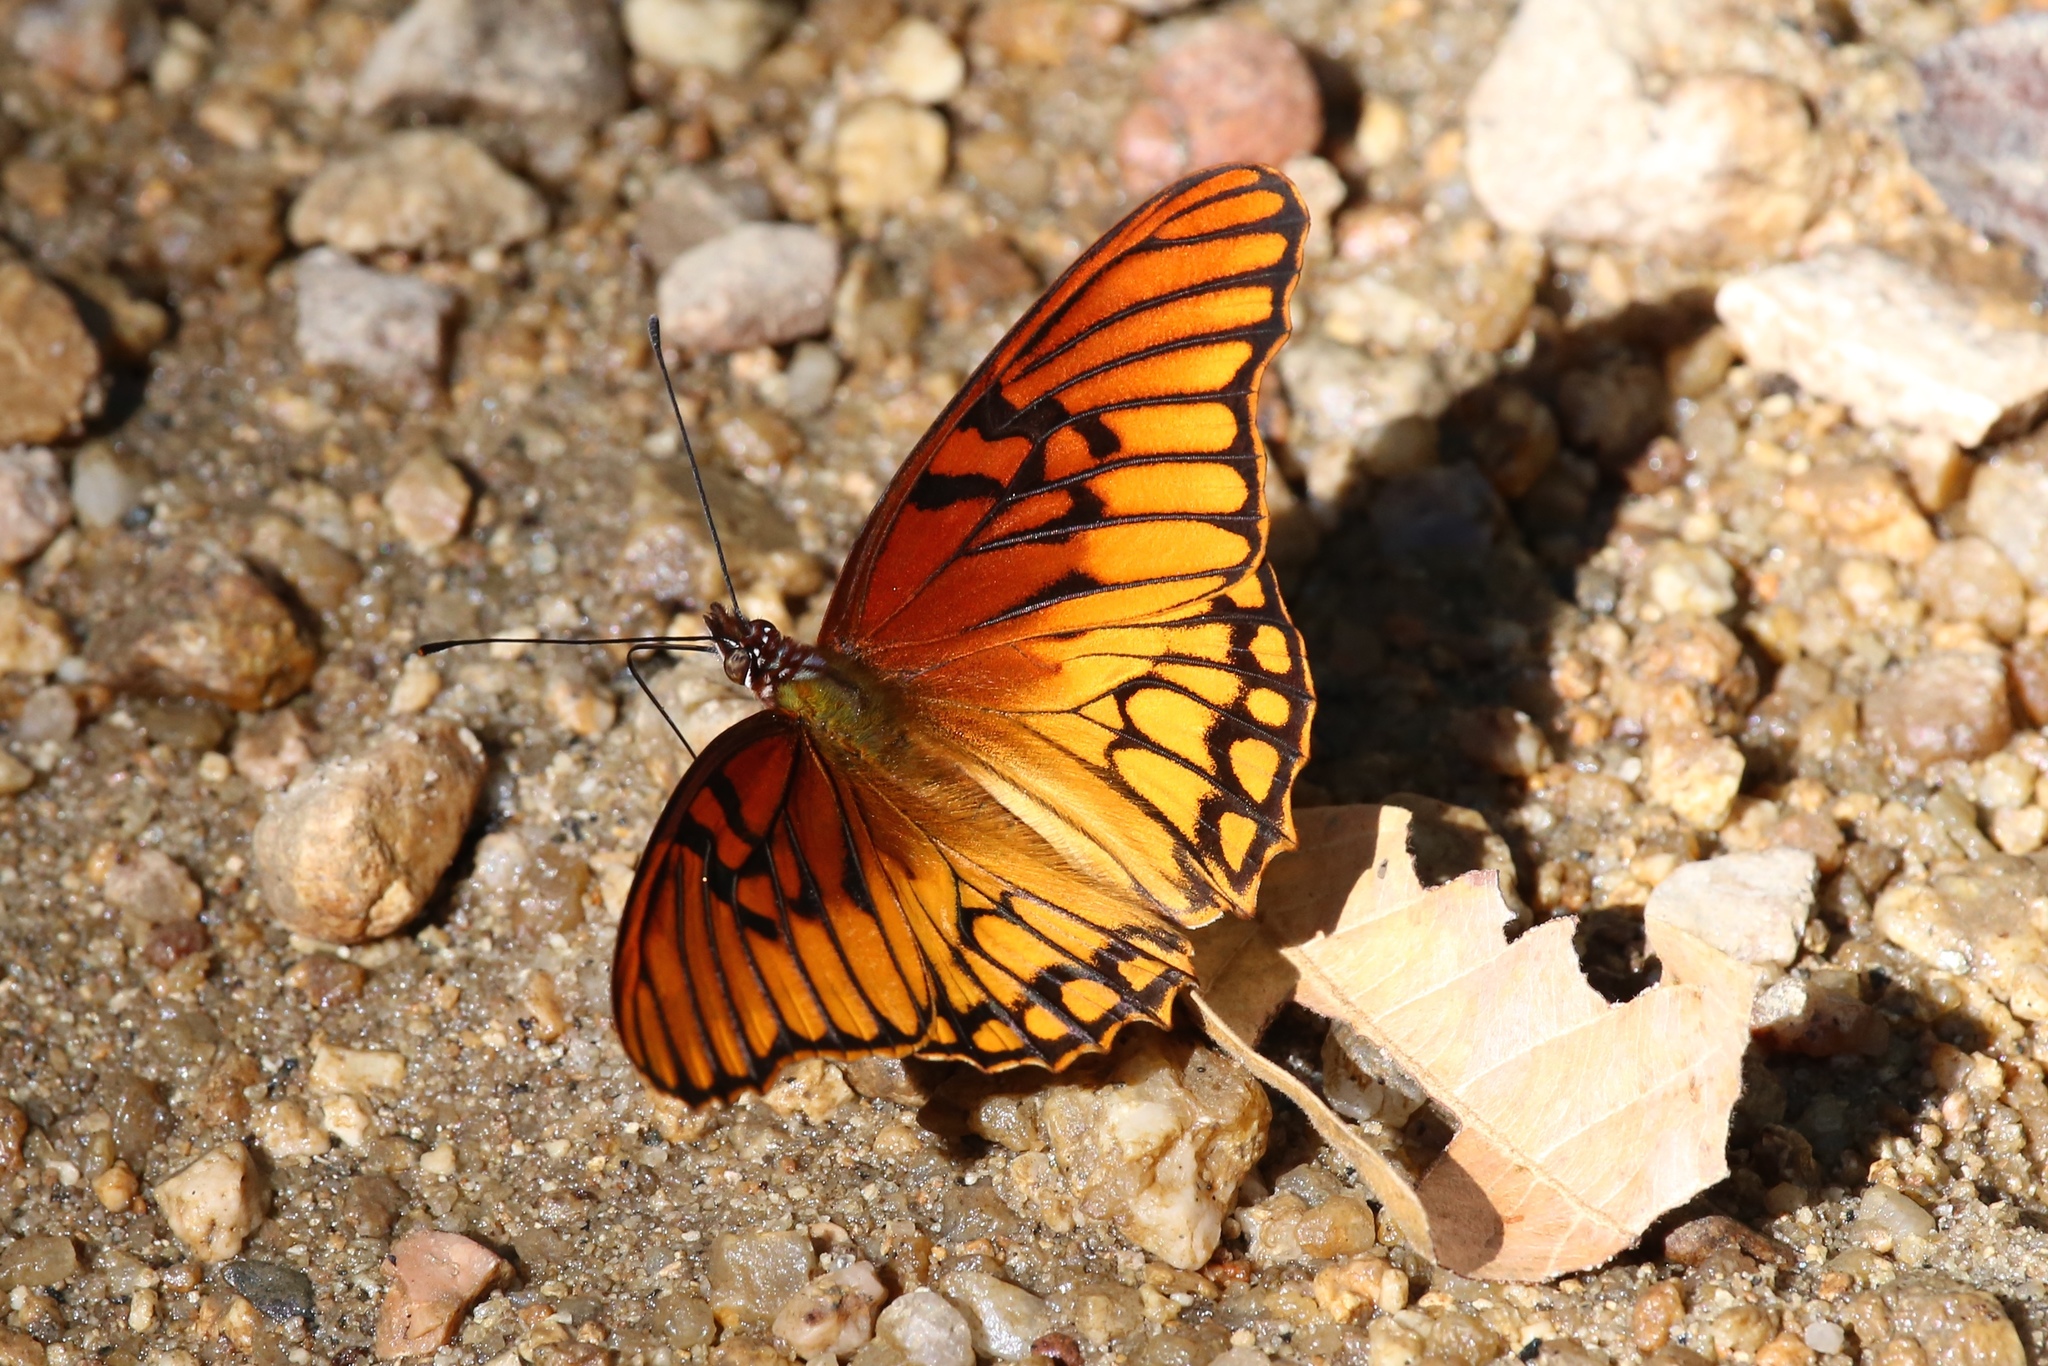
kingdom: Animalia
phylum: Arthropoda
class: Insecta
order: Lepidoptera
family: Nymphalidae
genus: Dione
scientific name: Dione moneta
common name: Mexican silverspot
